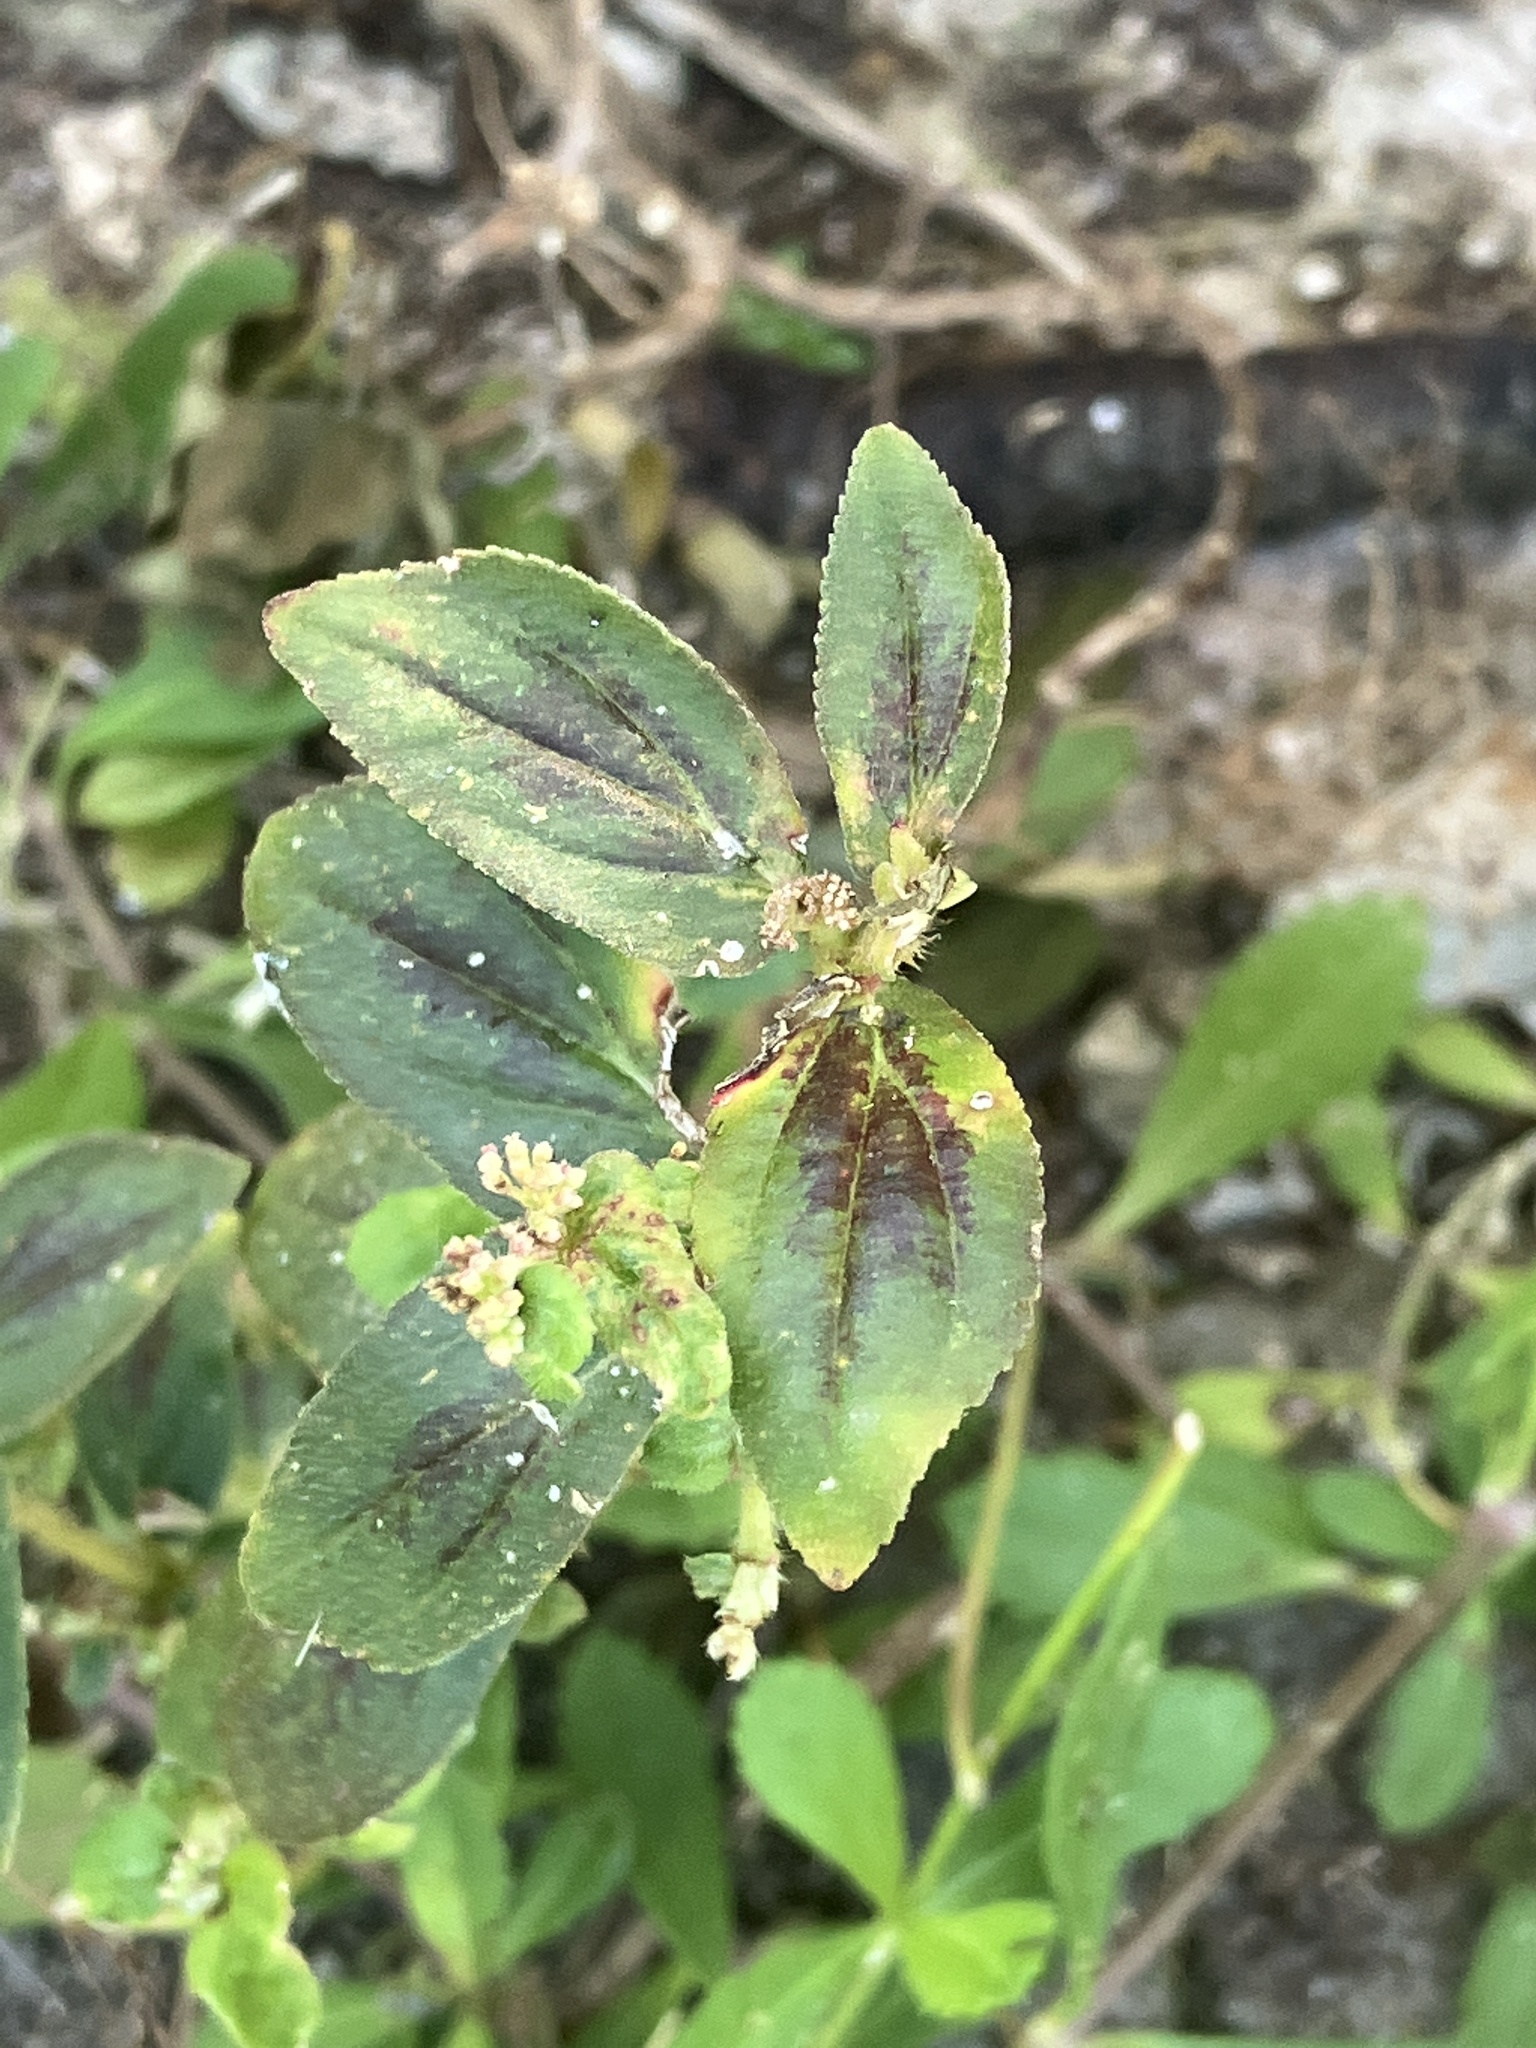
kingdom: Plantae
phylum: Tracheophyta
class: Magnoliopsida
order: Malpighiales
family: Euphorbiaceae
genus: Euphorbia
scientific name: Euphorbia hirta
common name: Pillpod sandmat
